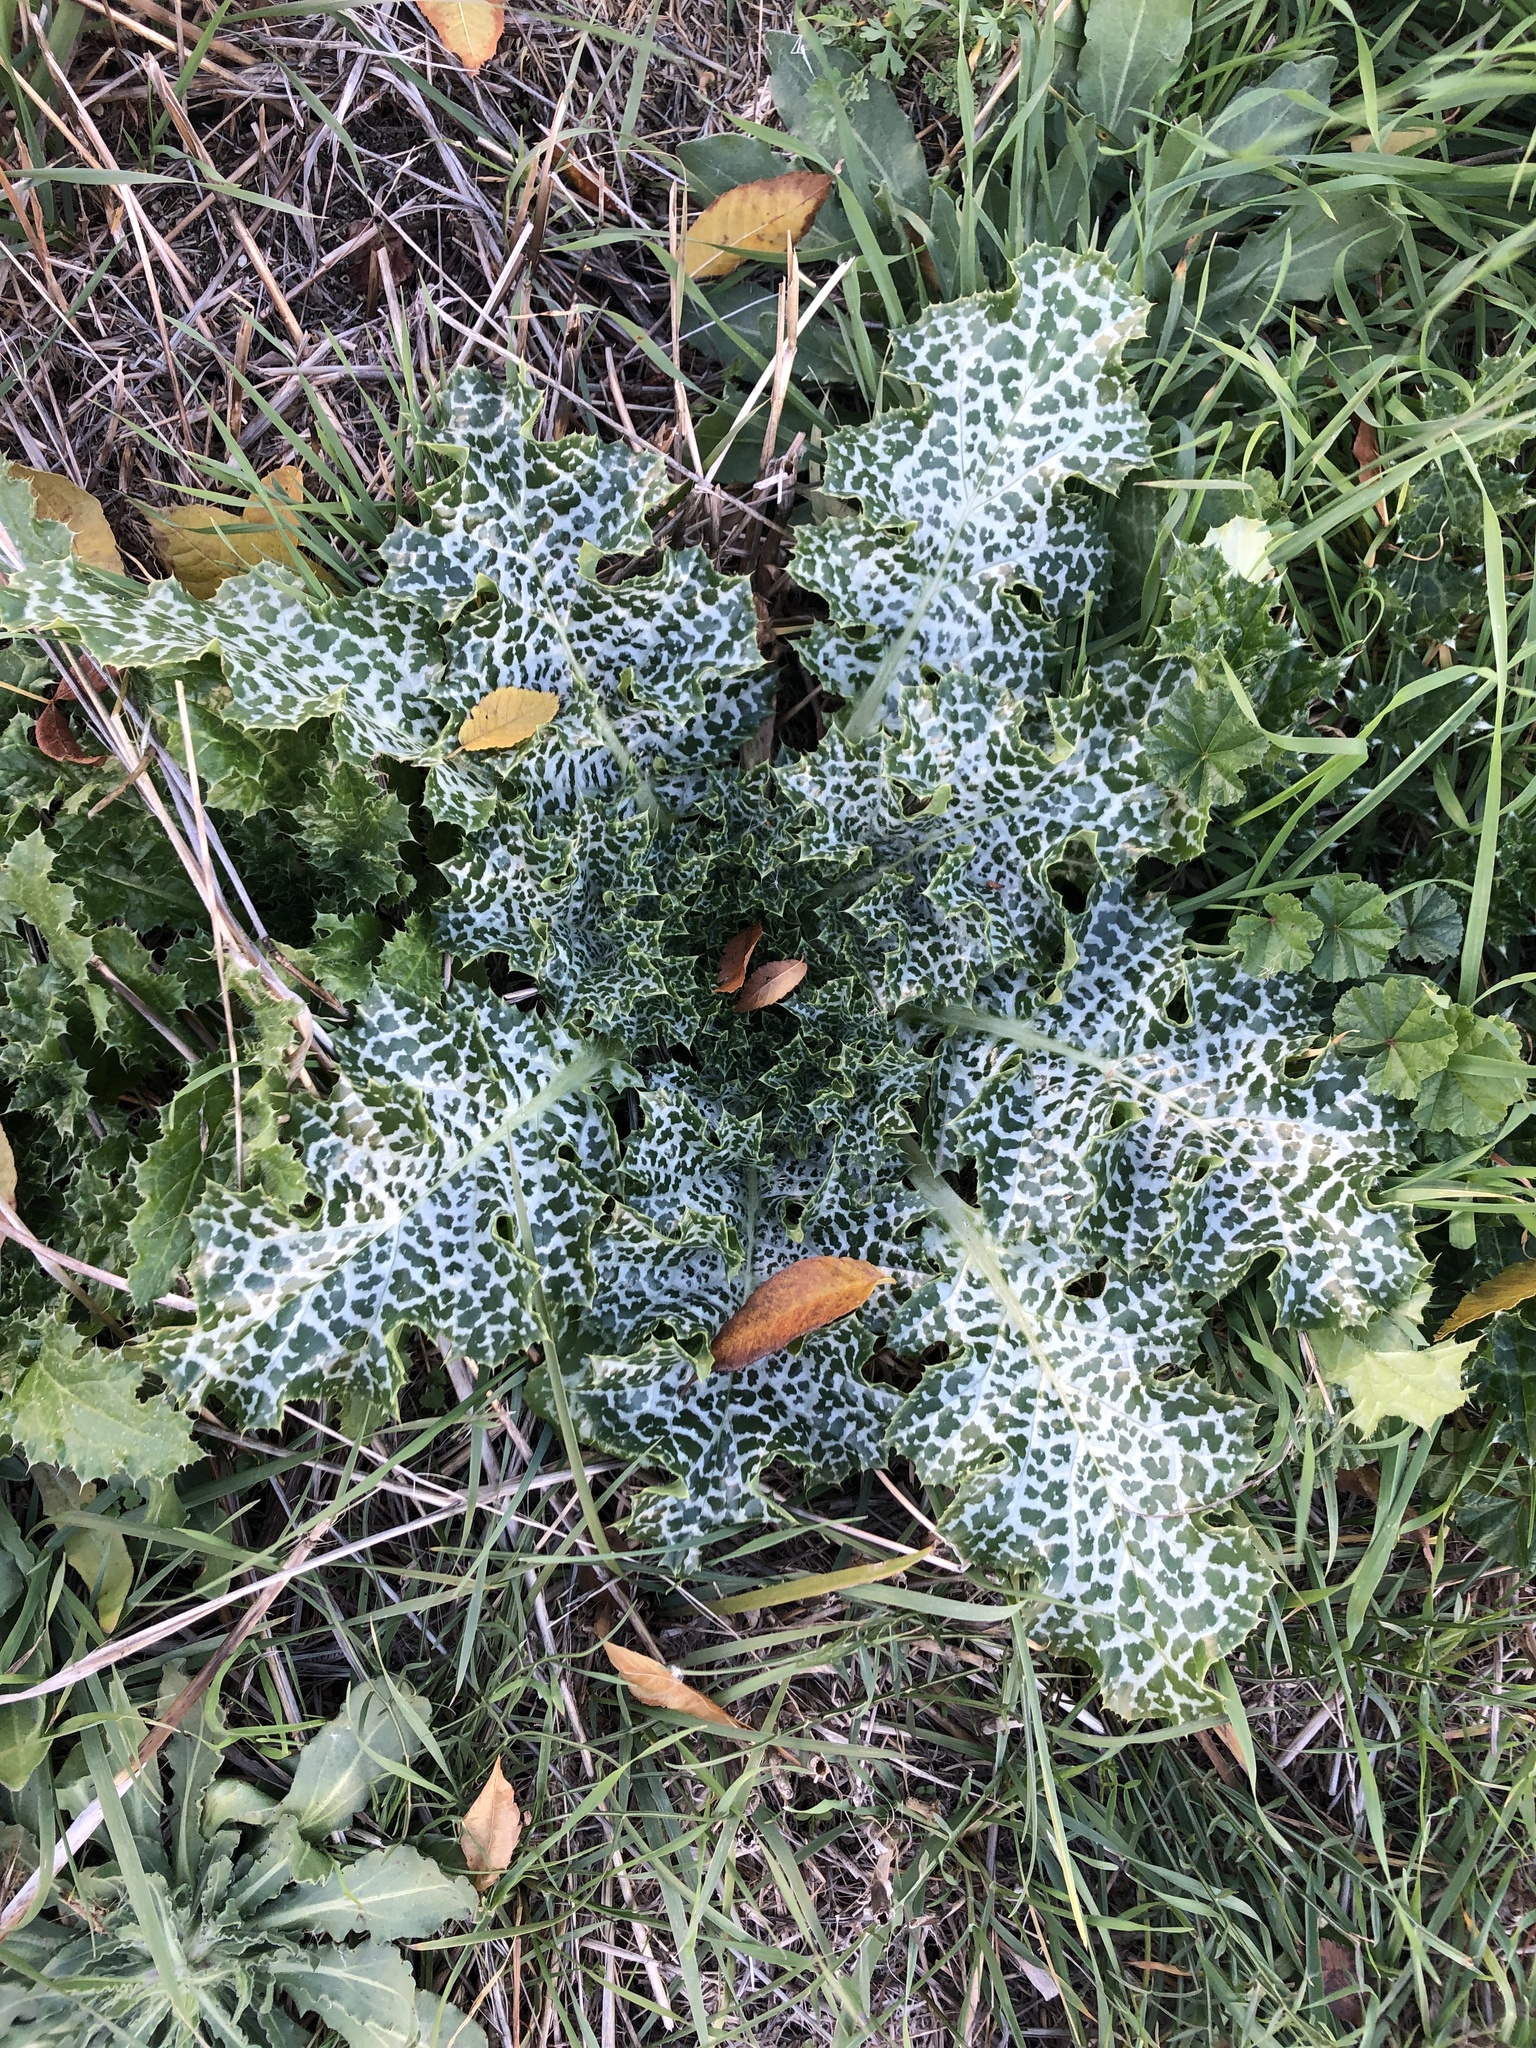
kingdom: Plantae
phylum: Tracheophyta
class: Magnoliopsida
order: Asterales
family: Asteraceae
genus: Silybum
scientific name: Silybum marianum
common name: Milk thistle
